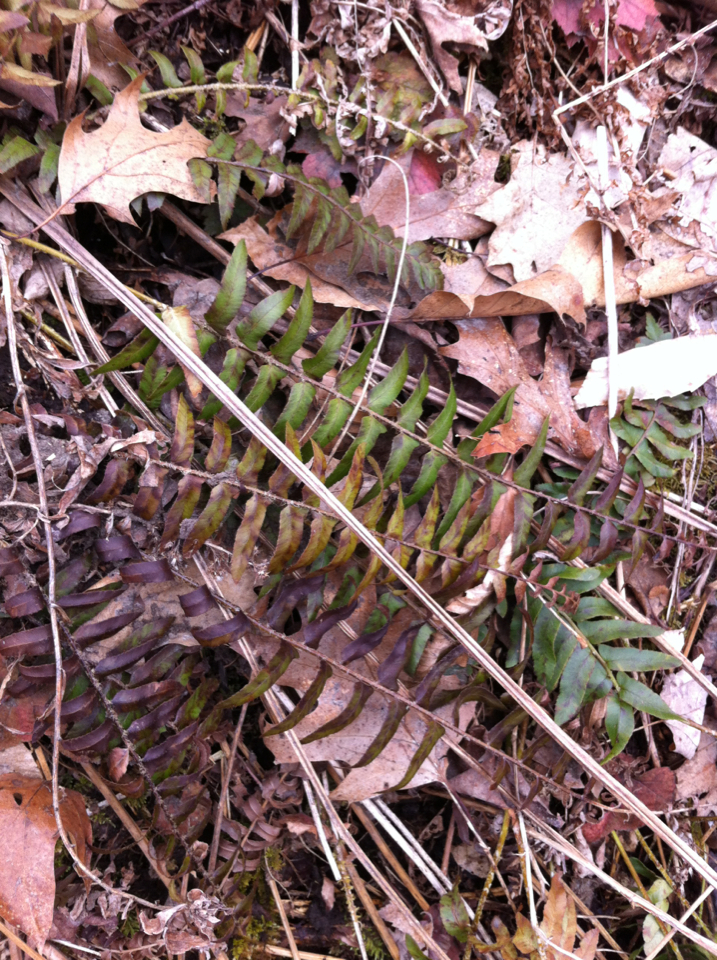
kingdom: Plantae
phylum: Tracheophyta
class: Polypodiopsida
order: Polypodiales
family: Dryopteridaceae
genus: Polystichum
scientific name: Polystichum acrostichoides
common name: Christmas fern
